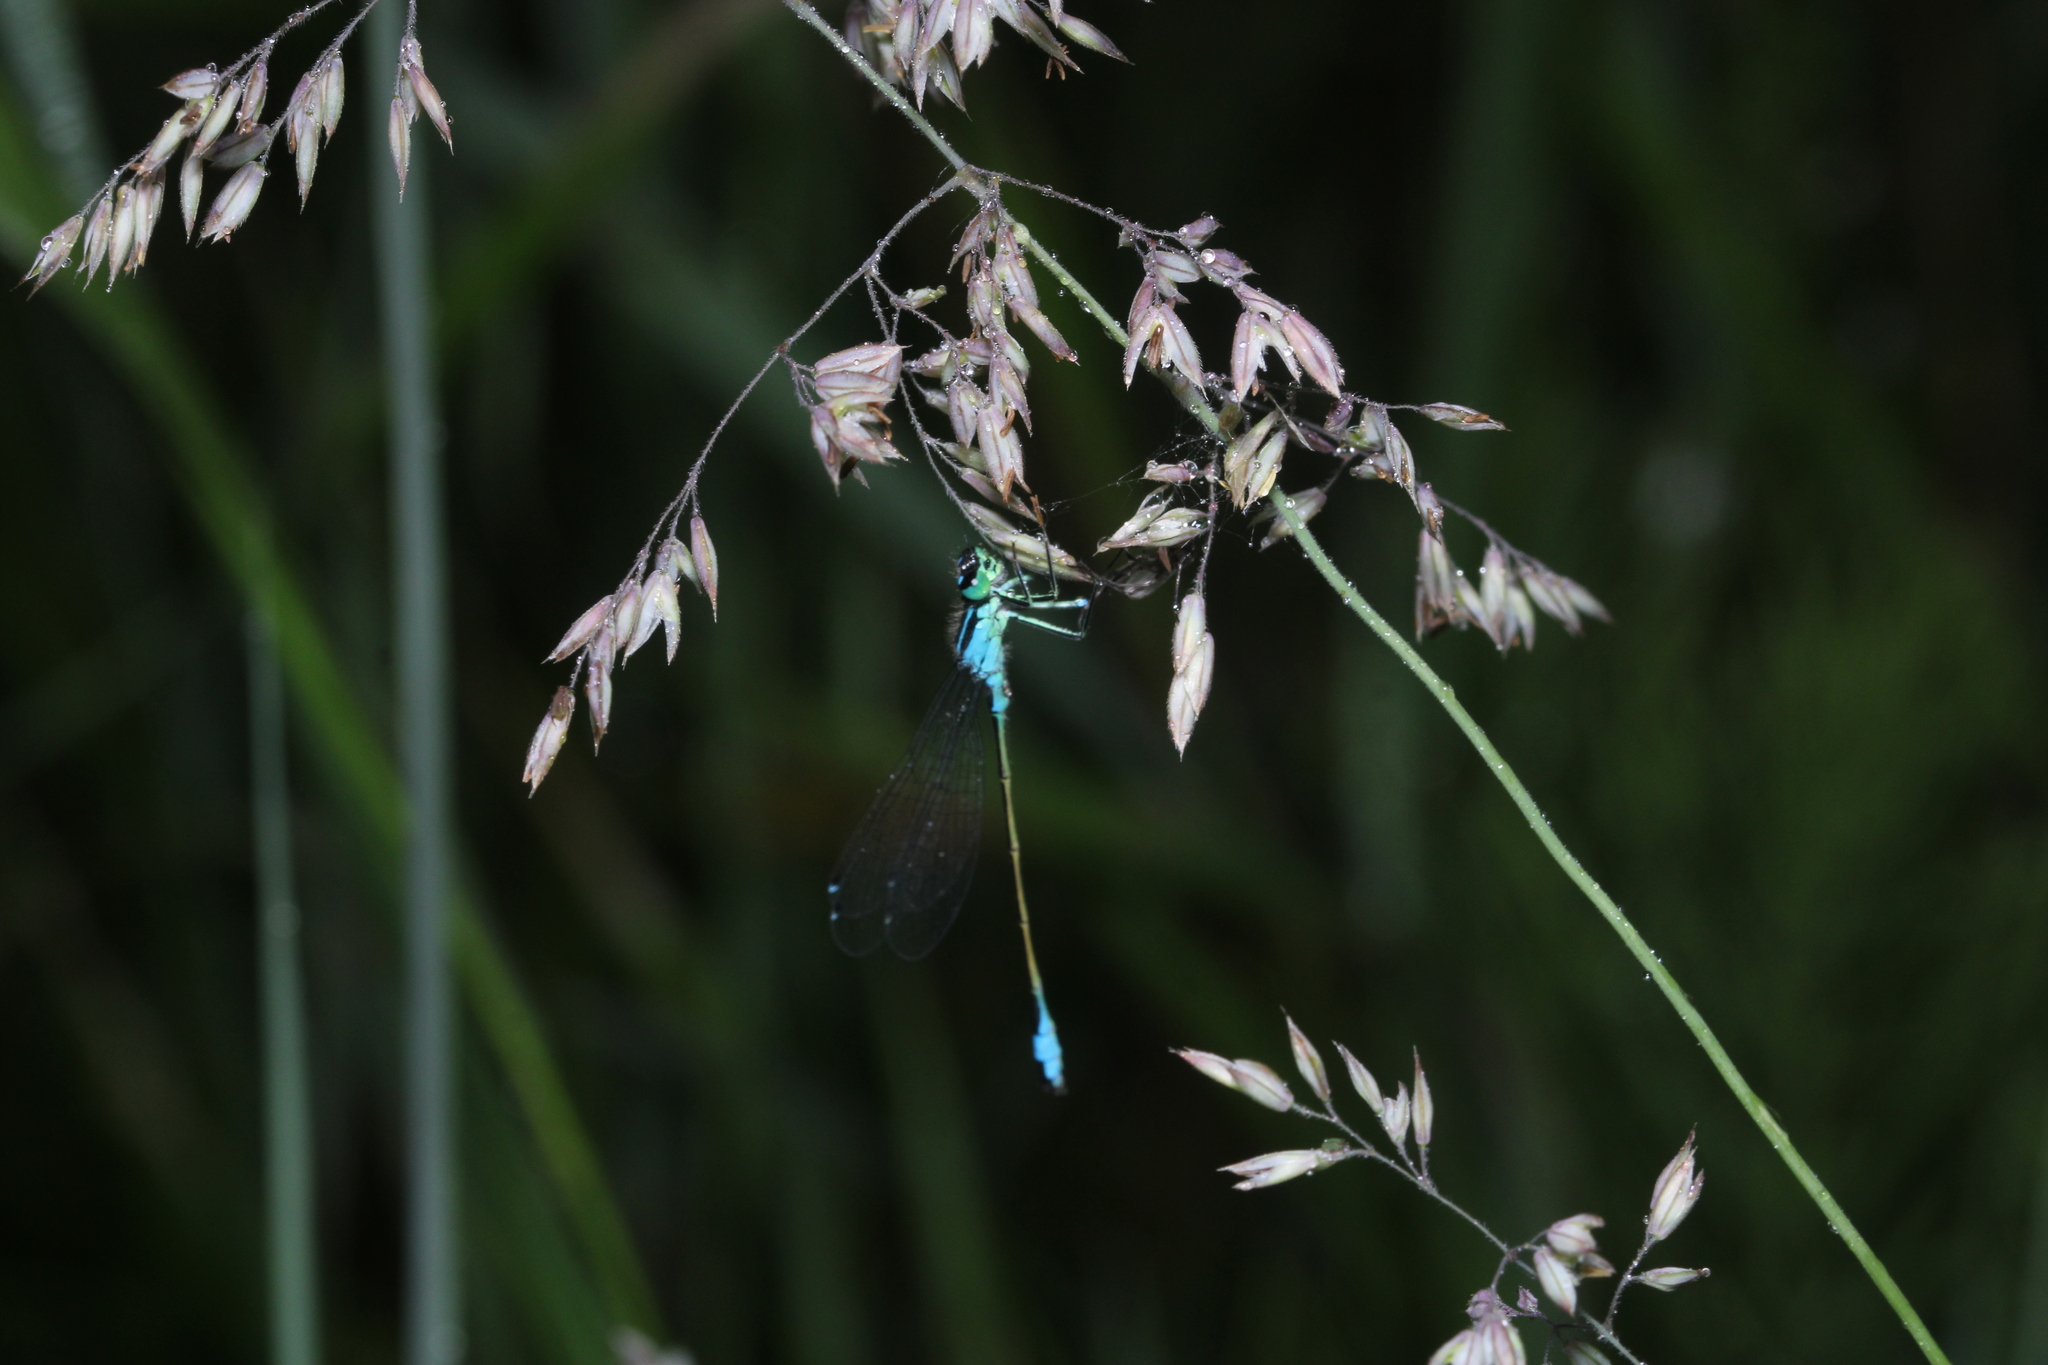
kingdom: Animalia
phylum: Arthropoda
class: Insecta
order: Odonata
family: Coenagrionidae
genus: Ischnura
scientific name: Ischnura elegans
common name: Blue-tailed damselfly
